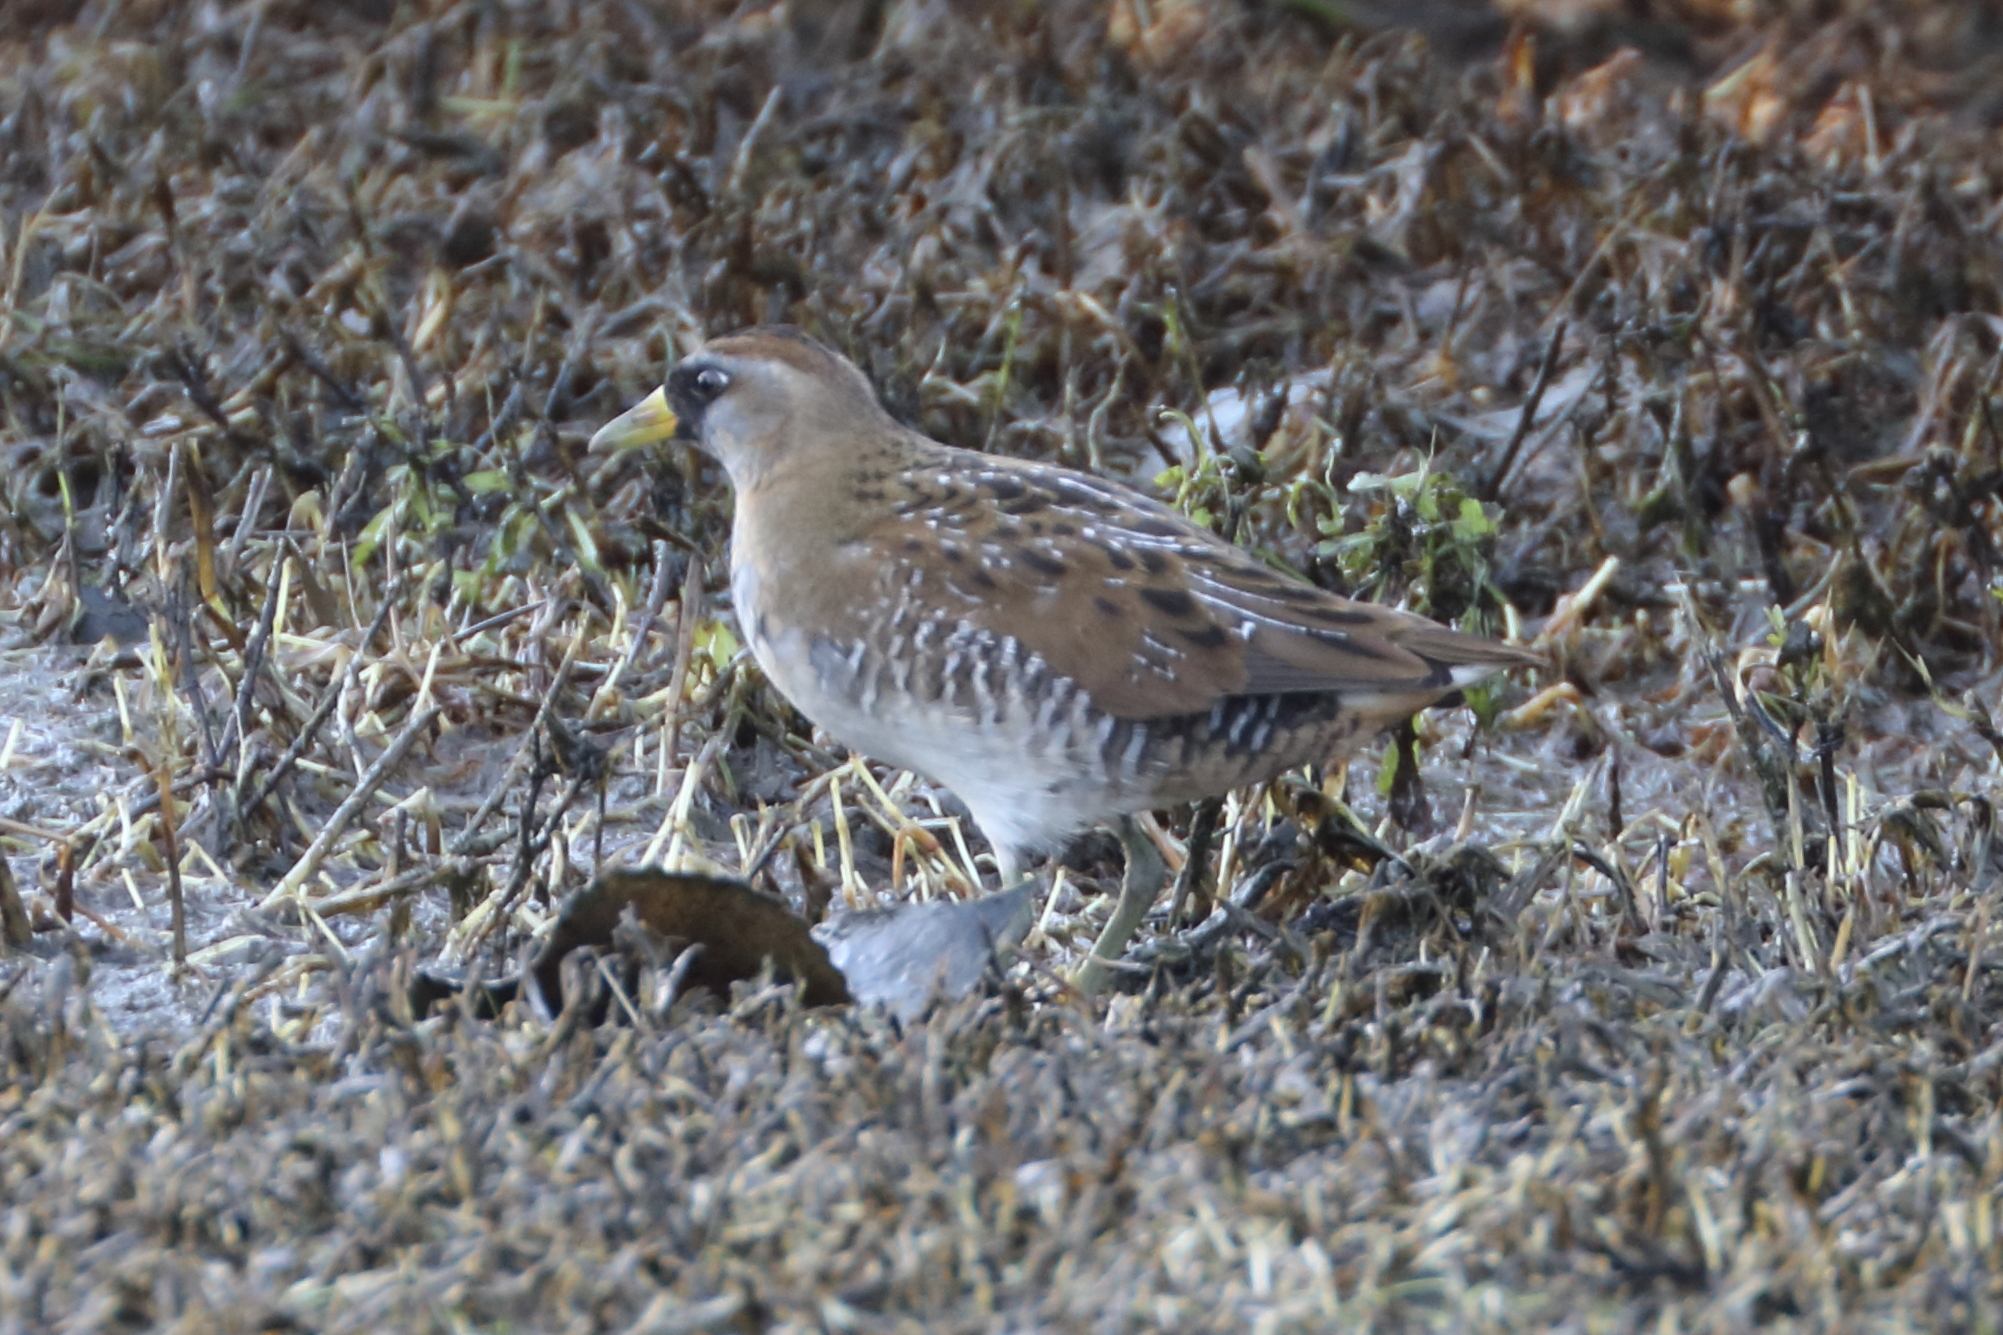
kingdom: Animalia
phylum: Chordata
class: Aves
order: Gruiformes
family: Rallidae
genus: Porzana
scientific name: Porzana carolina
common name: Sora
